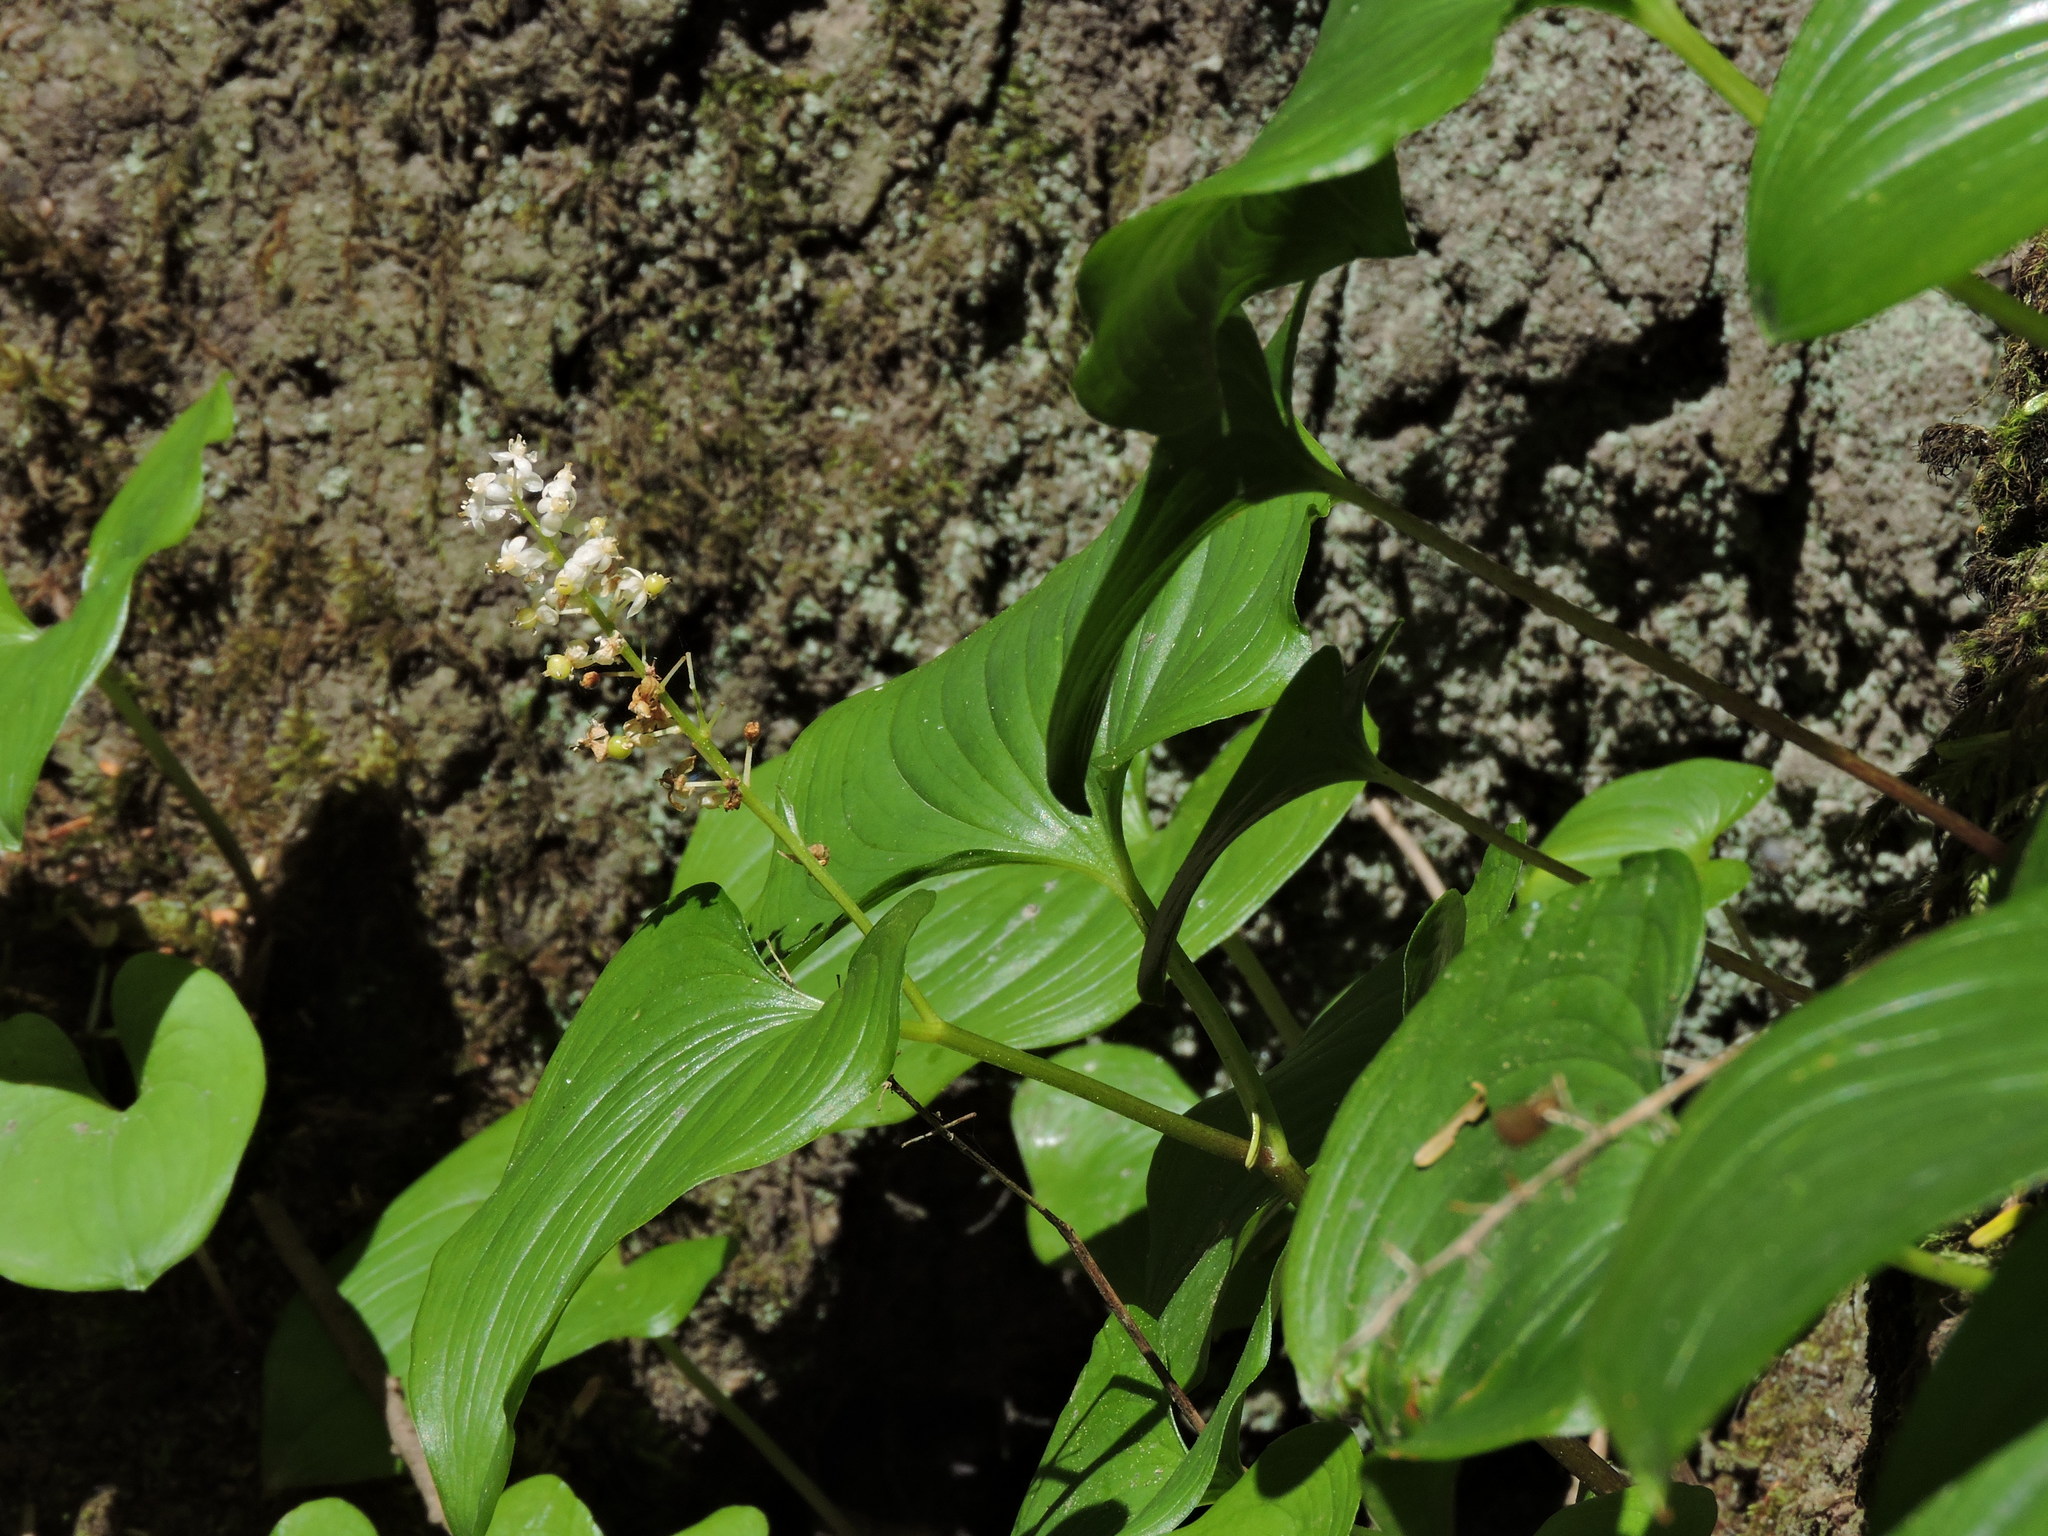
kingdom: Plantae
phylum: Tracheophyta
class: Liliopsida
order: Asparagales
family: Asparagaceae
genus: Maianthemum
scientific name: Maianthemum dilatatum
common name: False lily-of-the-valley
